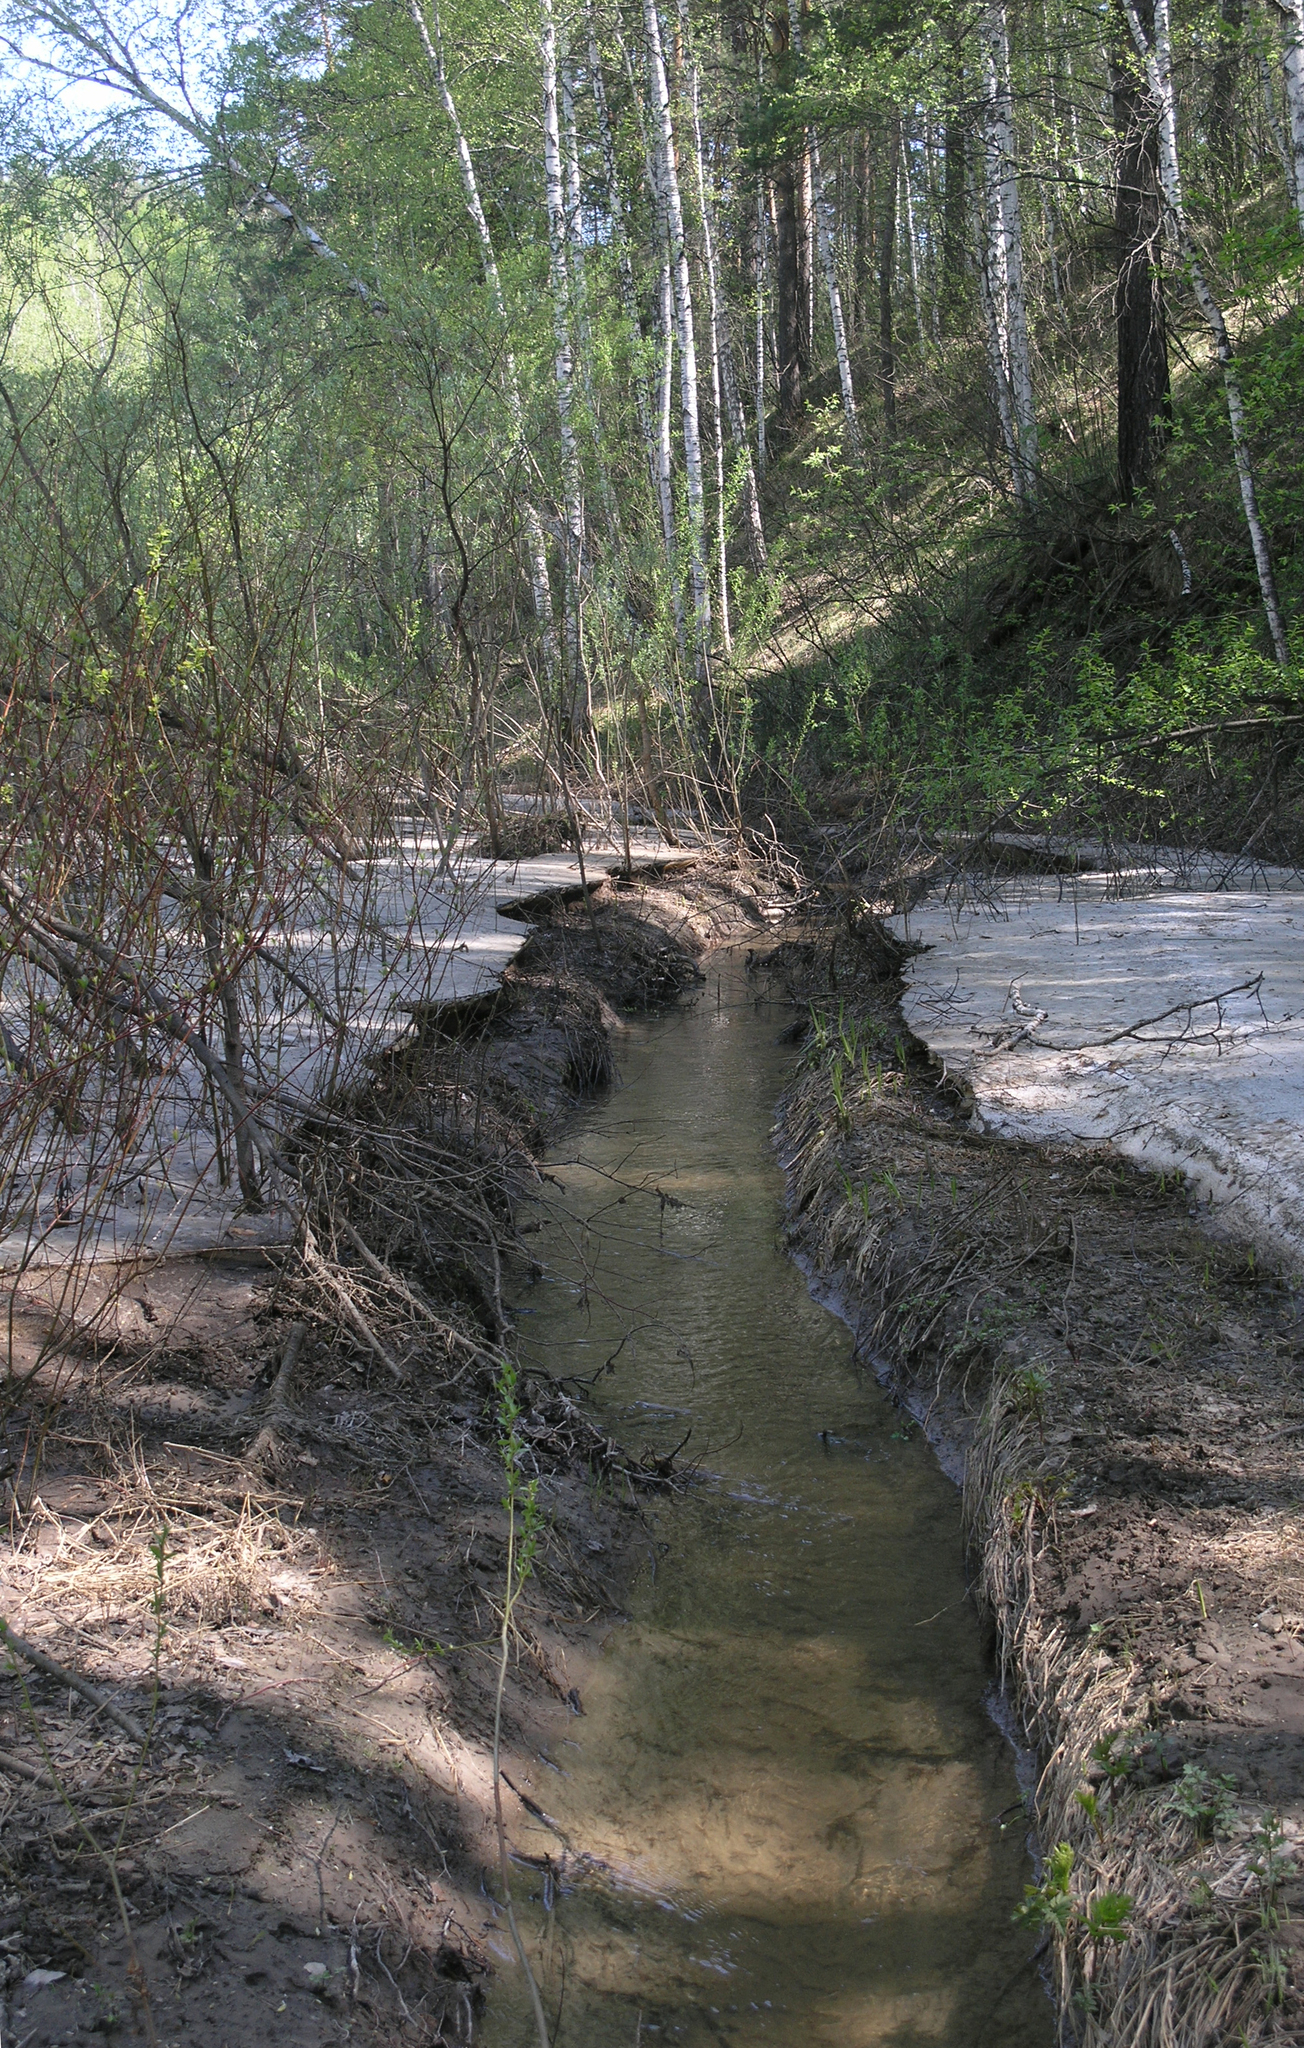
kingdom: Plantae
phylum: Tracheophyta
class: Magnoliopsida
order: Cornales
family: Cornaceae
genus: Cornus
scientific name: Cornus alba
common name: White dogwood
